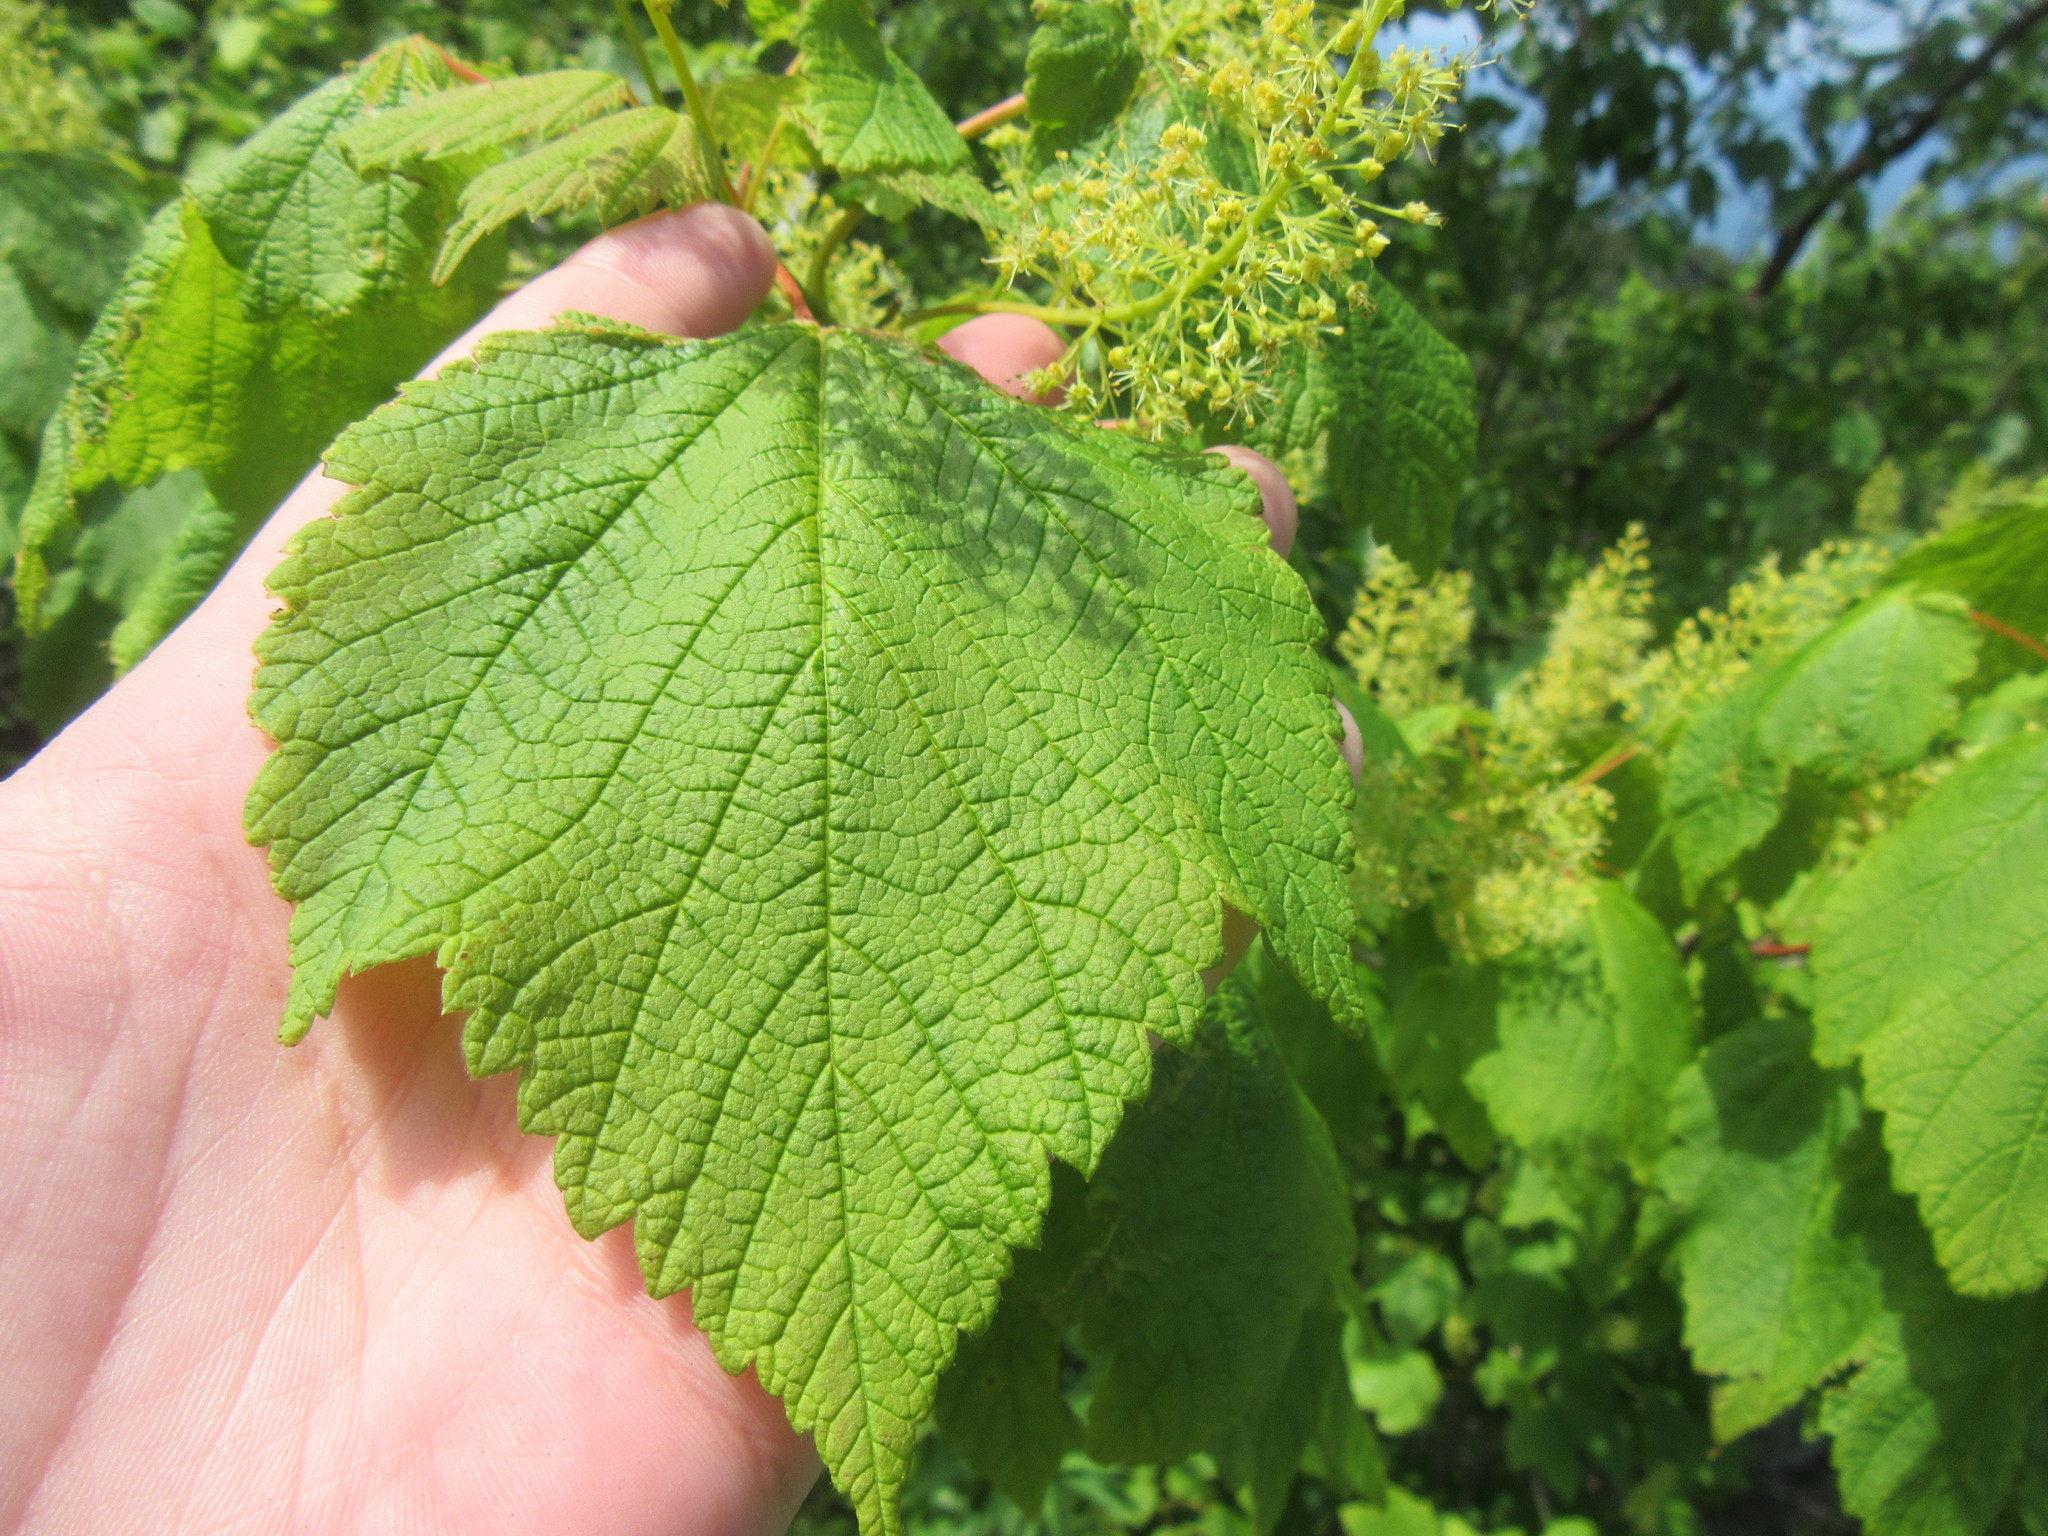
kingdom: Plantae
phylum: Tracheophyta
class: Magnoliopsida
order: Sapindales
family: Sapindaceae
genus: Acer
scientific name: Acer spicatum
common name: Mountain maple
